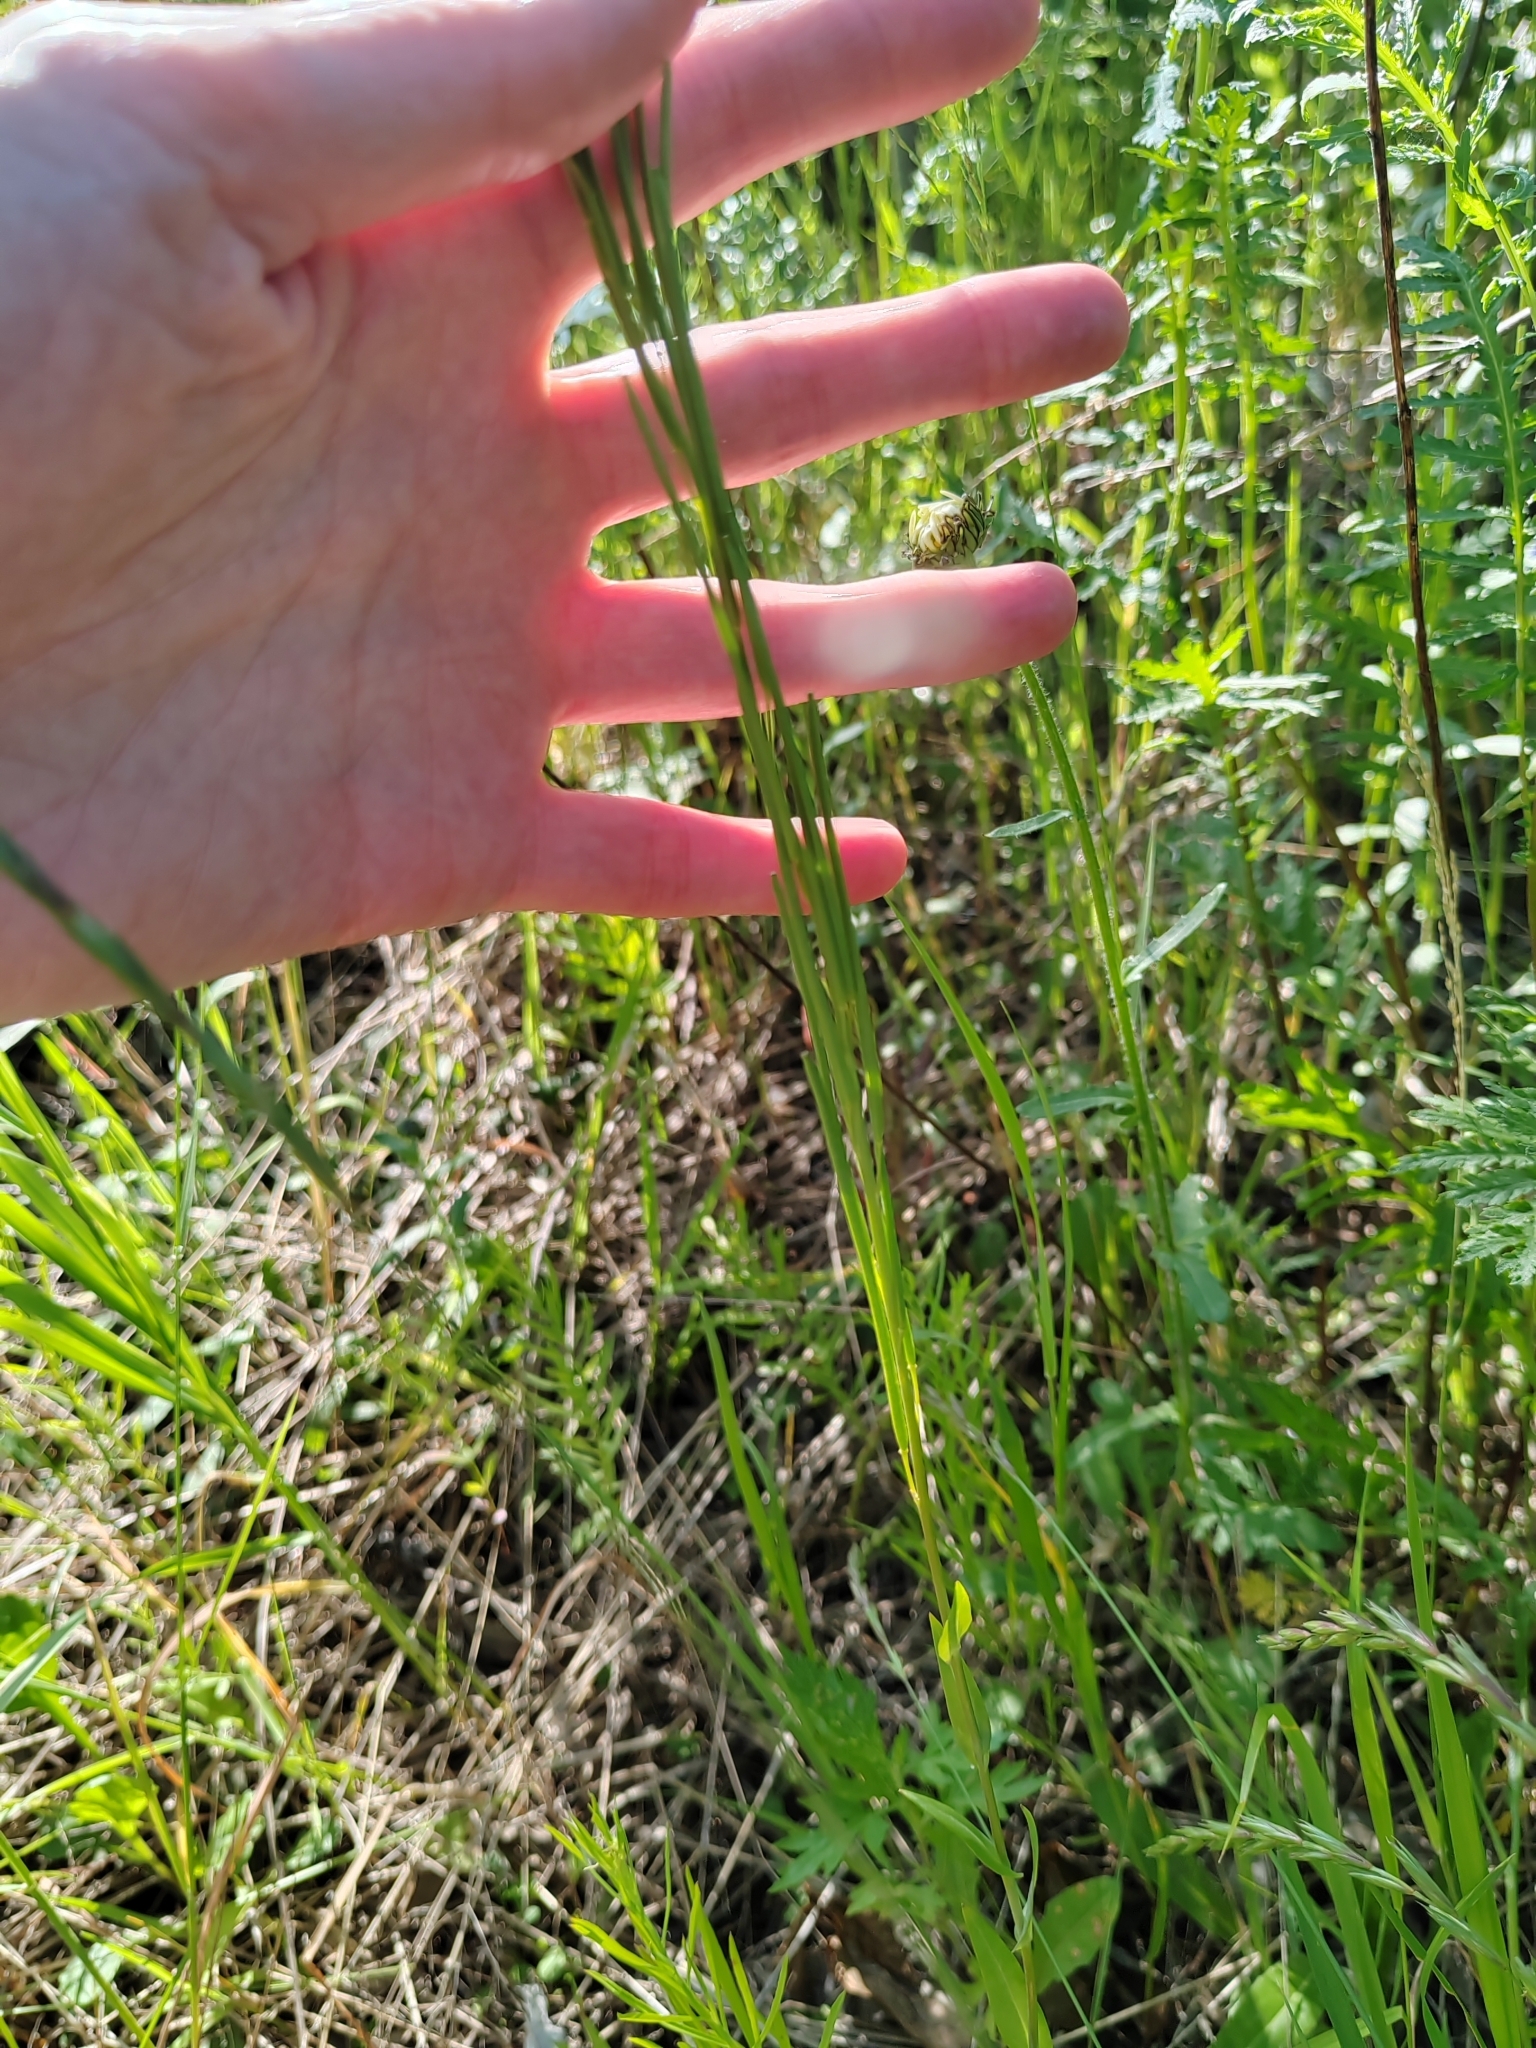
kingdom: Plantae
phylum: Tracheophyta
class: Magnoliopsida
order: Brassicales
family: Brassicaceae
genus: Turritis
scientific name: Turritis glabra
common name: Tower rockcress
